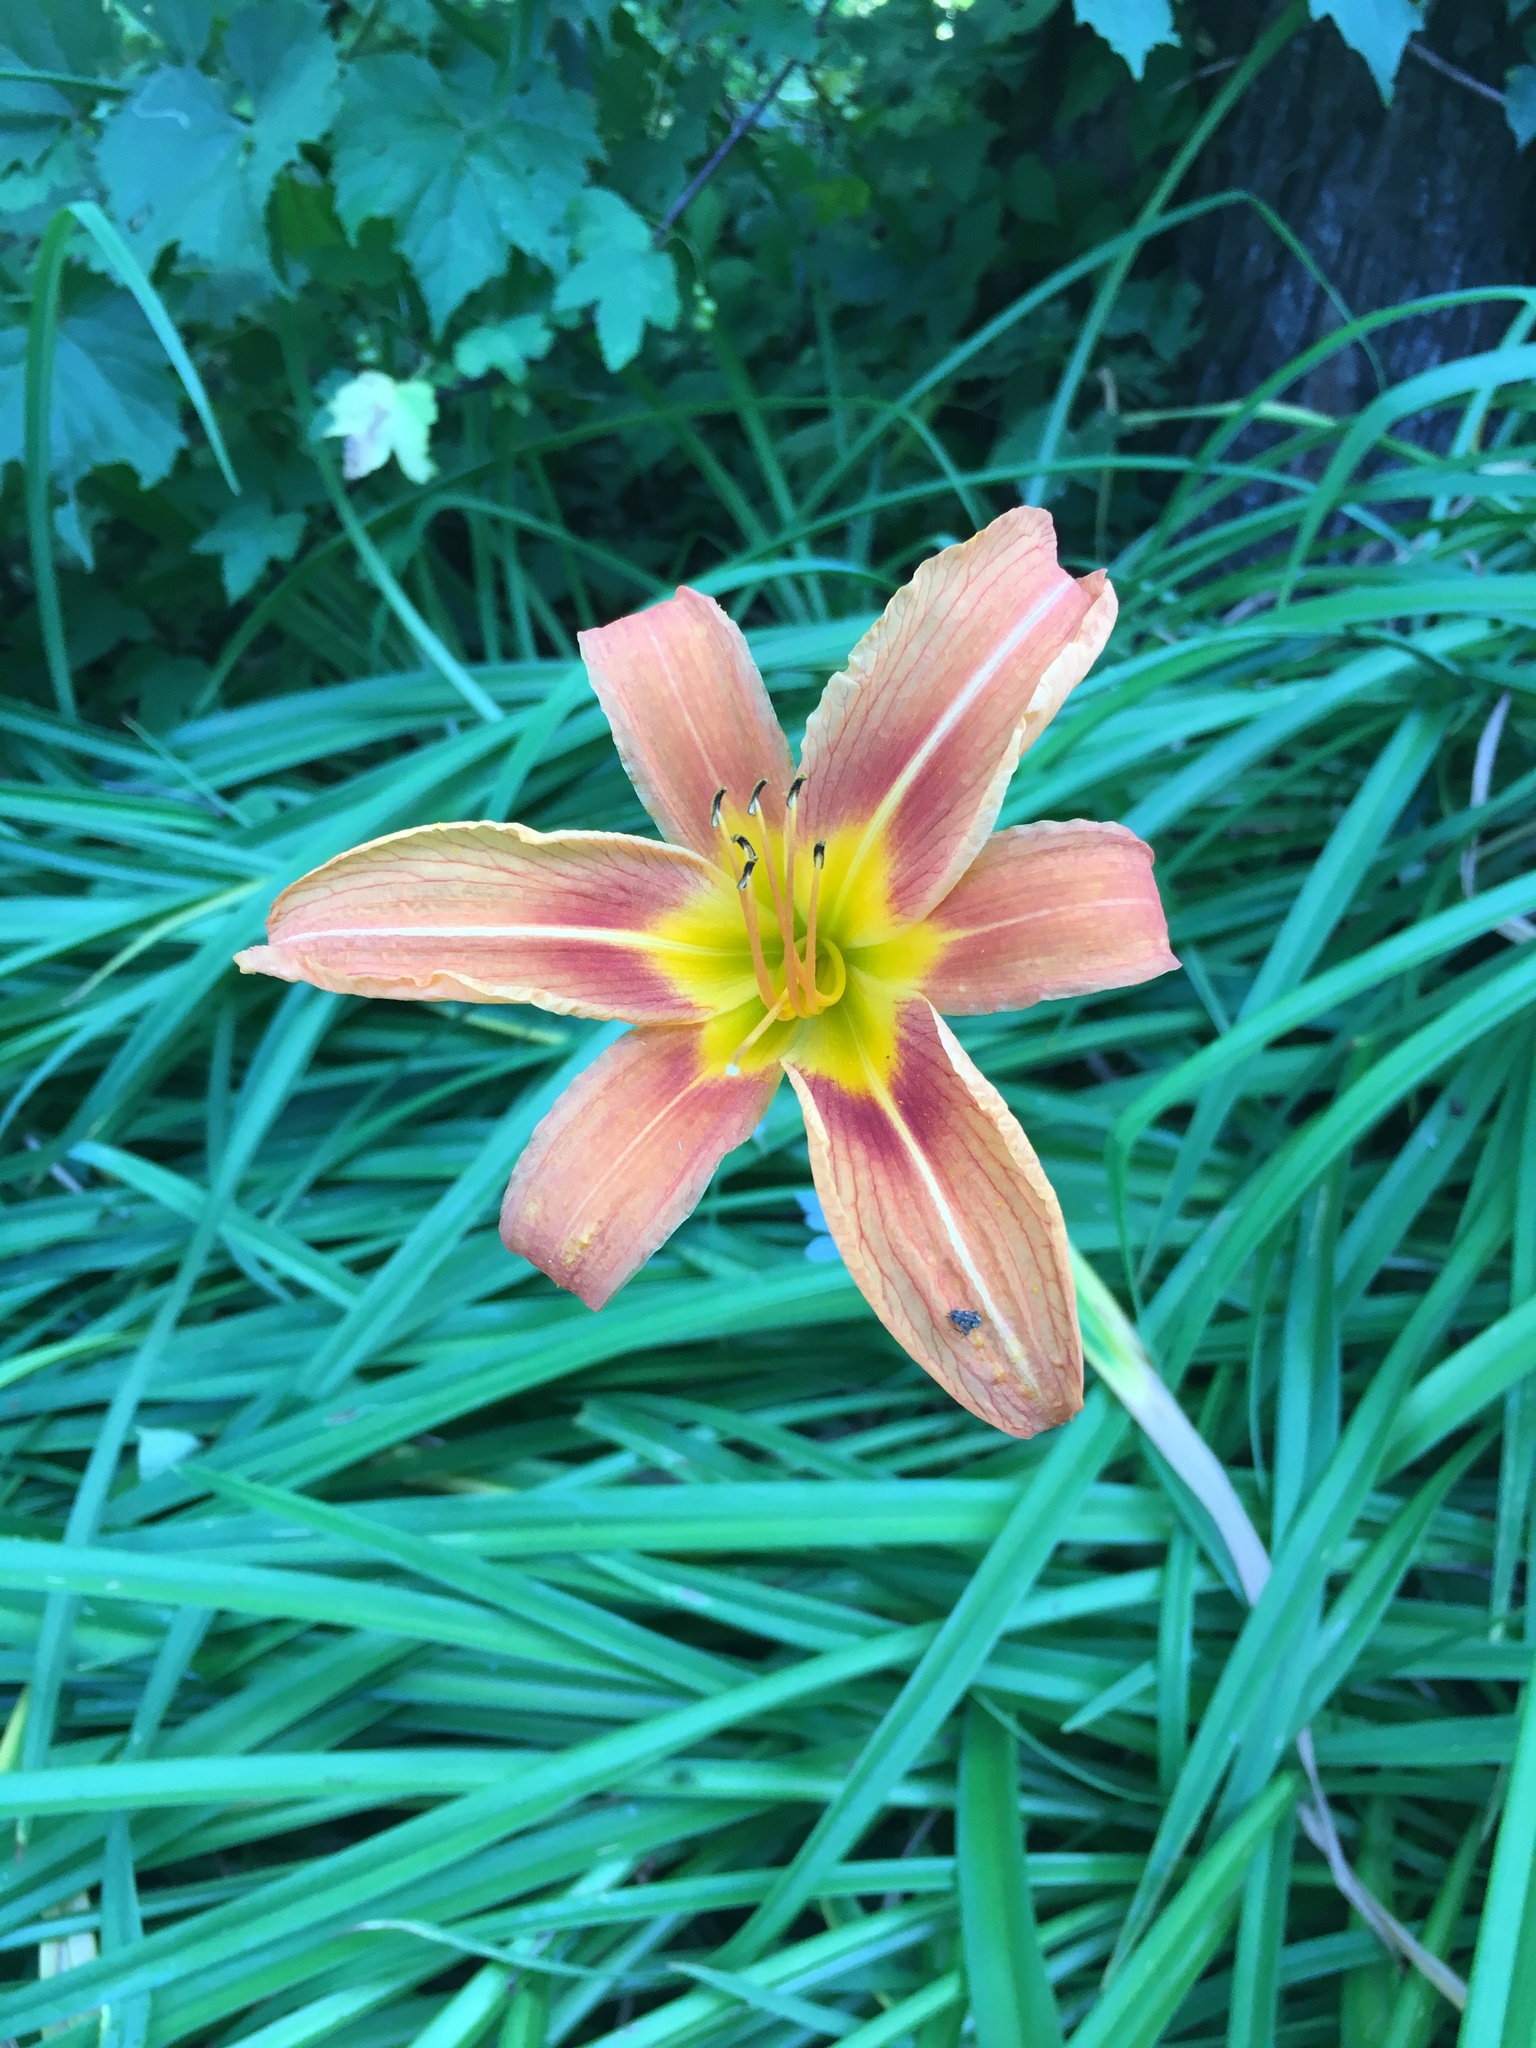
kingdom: Plantae
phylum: Tracheophyta
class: Liliopsida
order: Asparagales
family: Asphodelaceae
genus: Hemerocallis
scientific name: Hemerocallis fulva
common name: Orange day-lily
